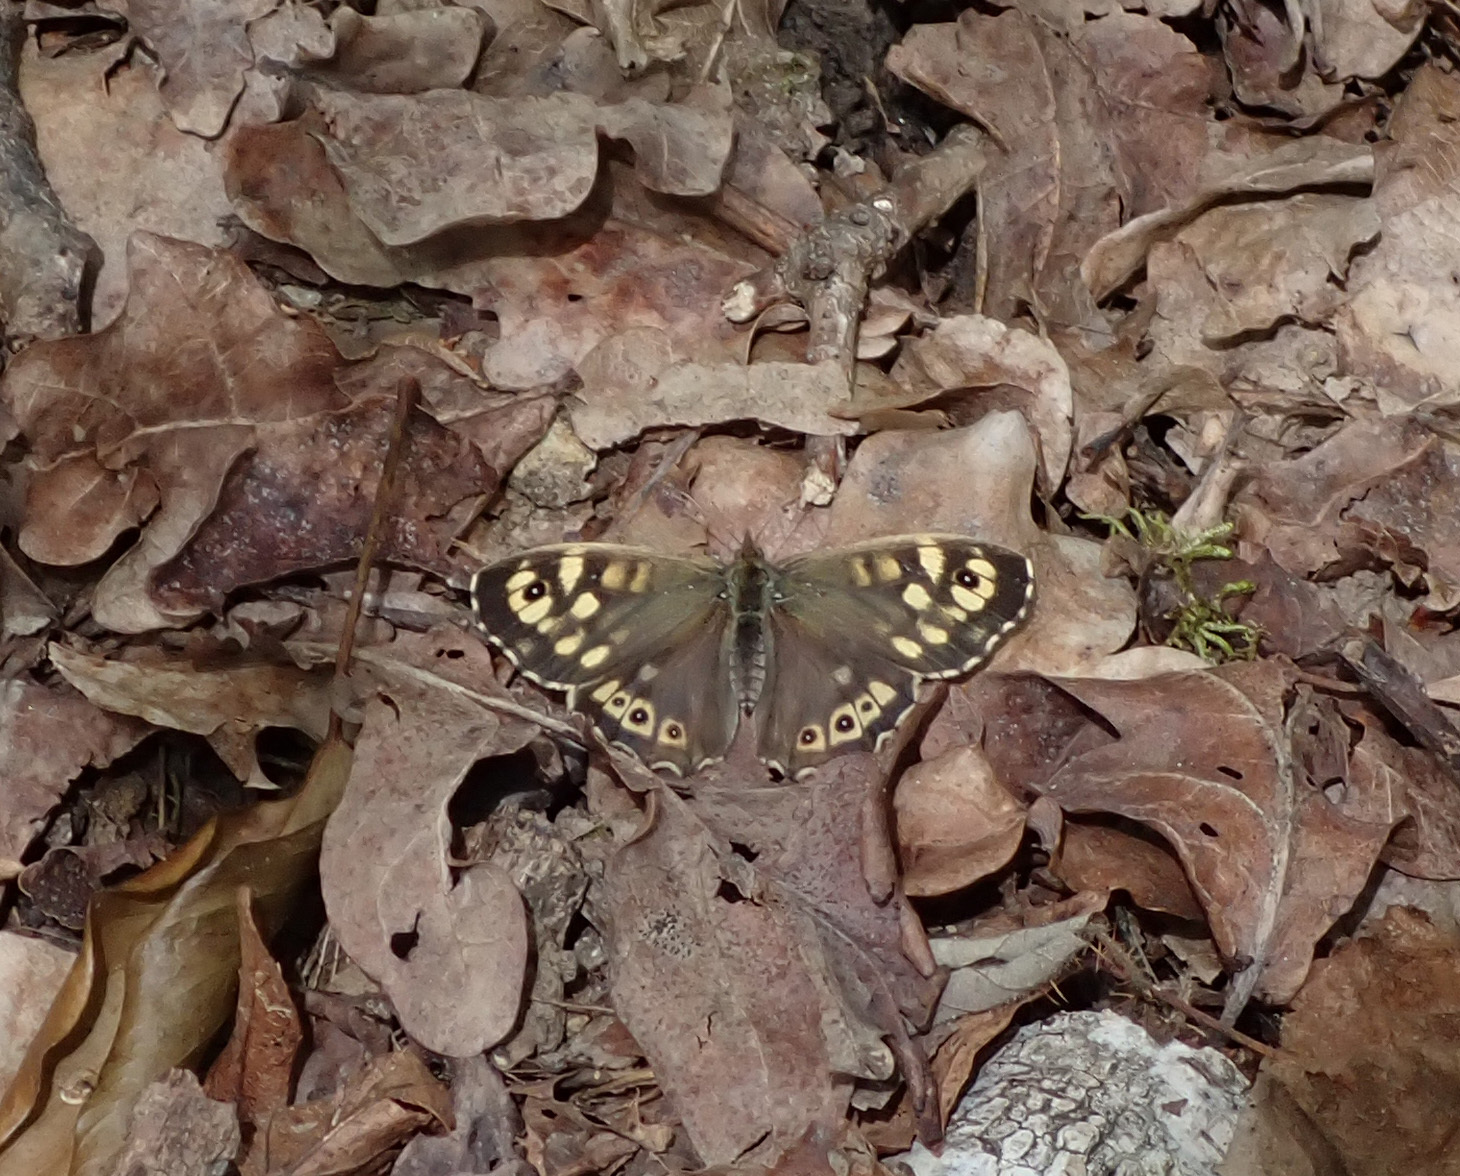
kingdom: Animalia
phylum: Arthropoda
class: Insecta
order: Lepidoptera
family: Nymphalidae
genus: Pararge
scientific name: Pararge aegeria
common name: Speckled wood
